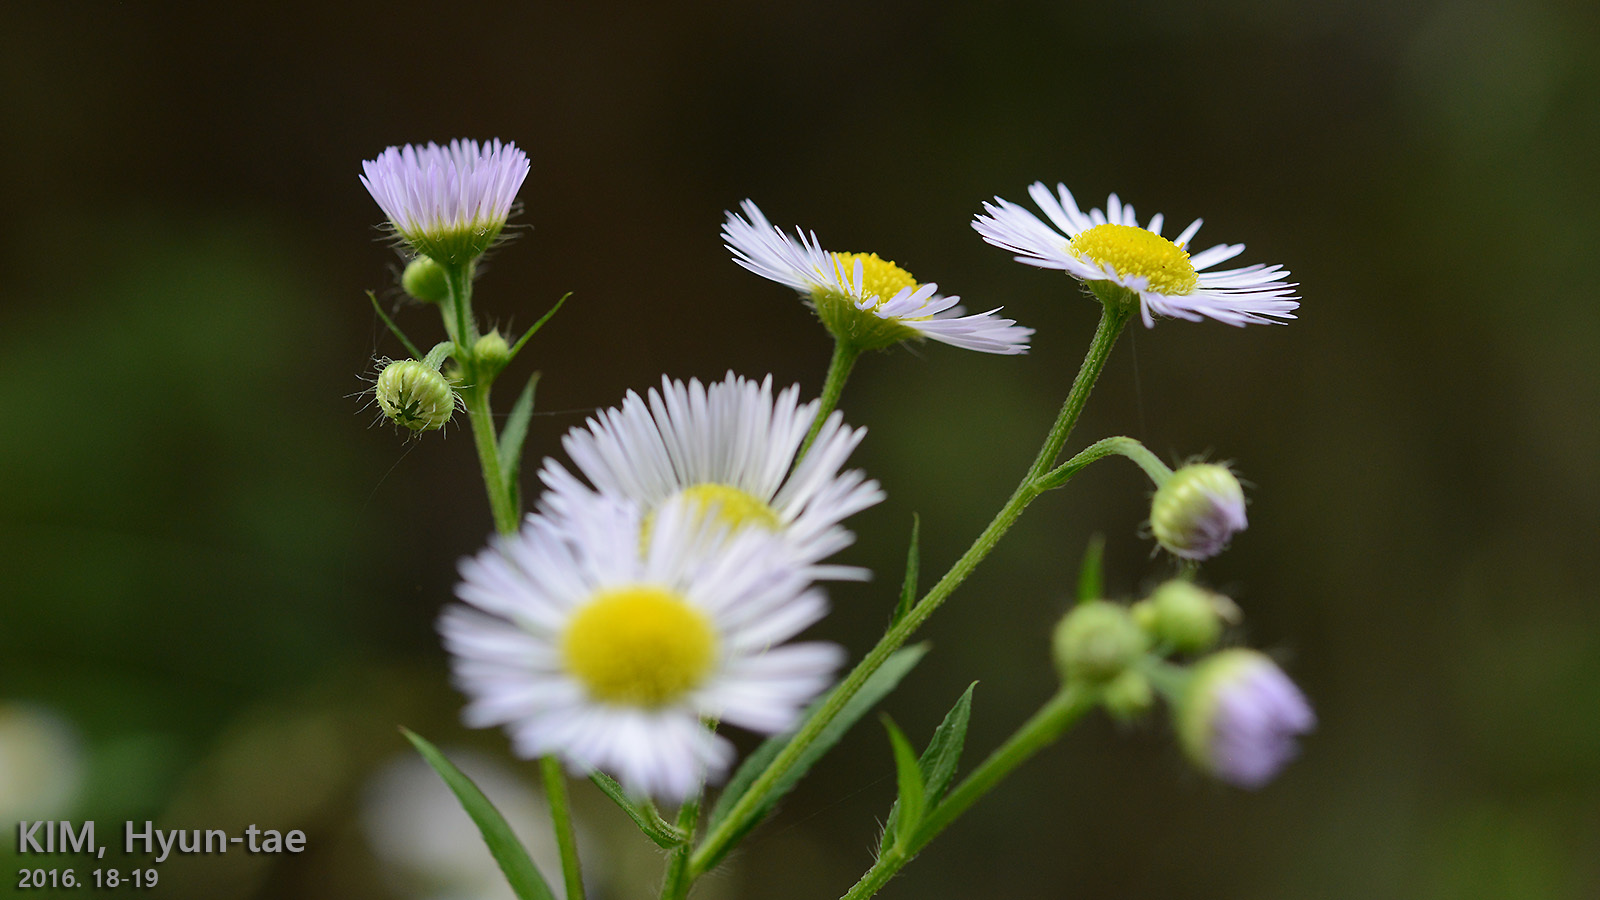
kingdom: Plantae
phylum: Tracheophyta
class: Magnoliopsida
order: Asterales
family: Asteraceae
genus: Erigeron
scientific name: Erigeron annuus
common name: Tall fleabane
